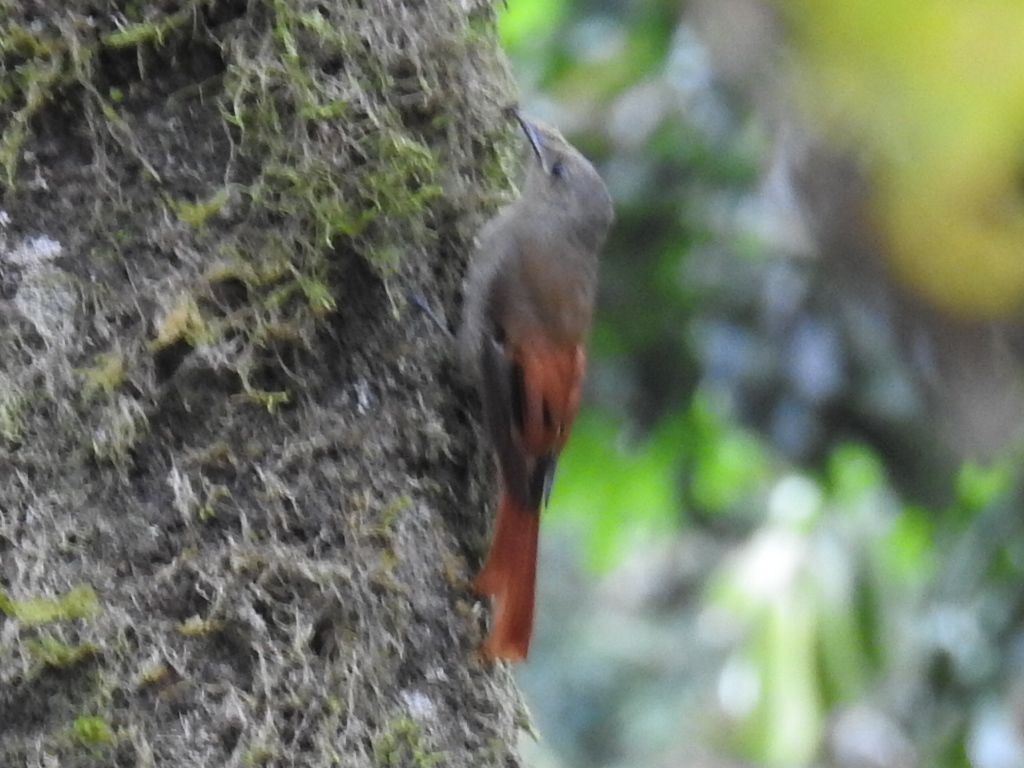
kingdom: Animalia
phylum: Chordata
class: Aves
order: Passeriformes
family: Furnariidae
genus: Sittasomus
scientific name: Sittasomus griseicapillus
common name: Olivaceous woodcreeper
